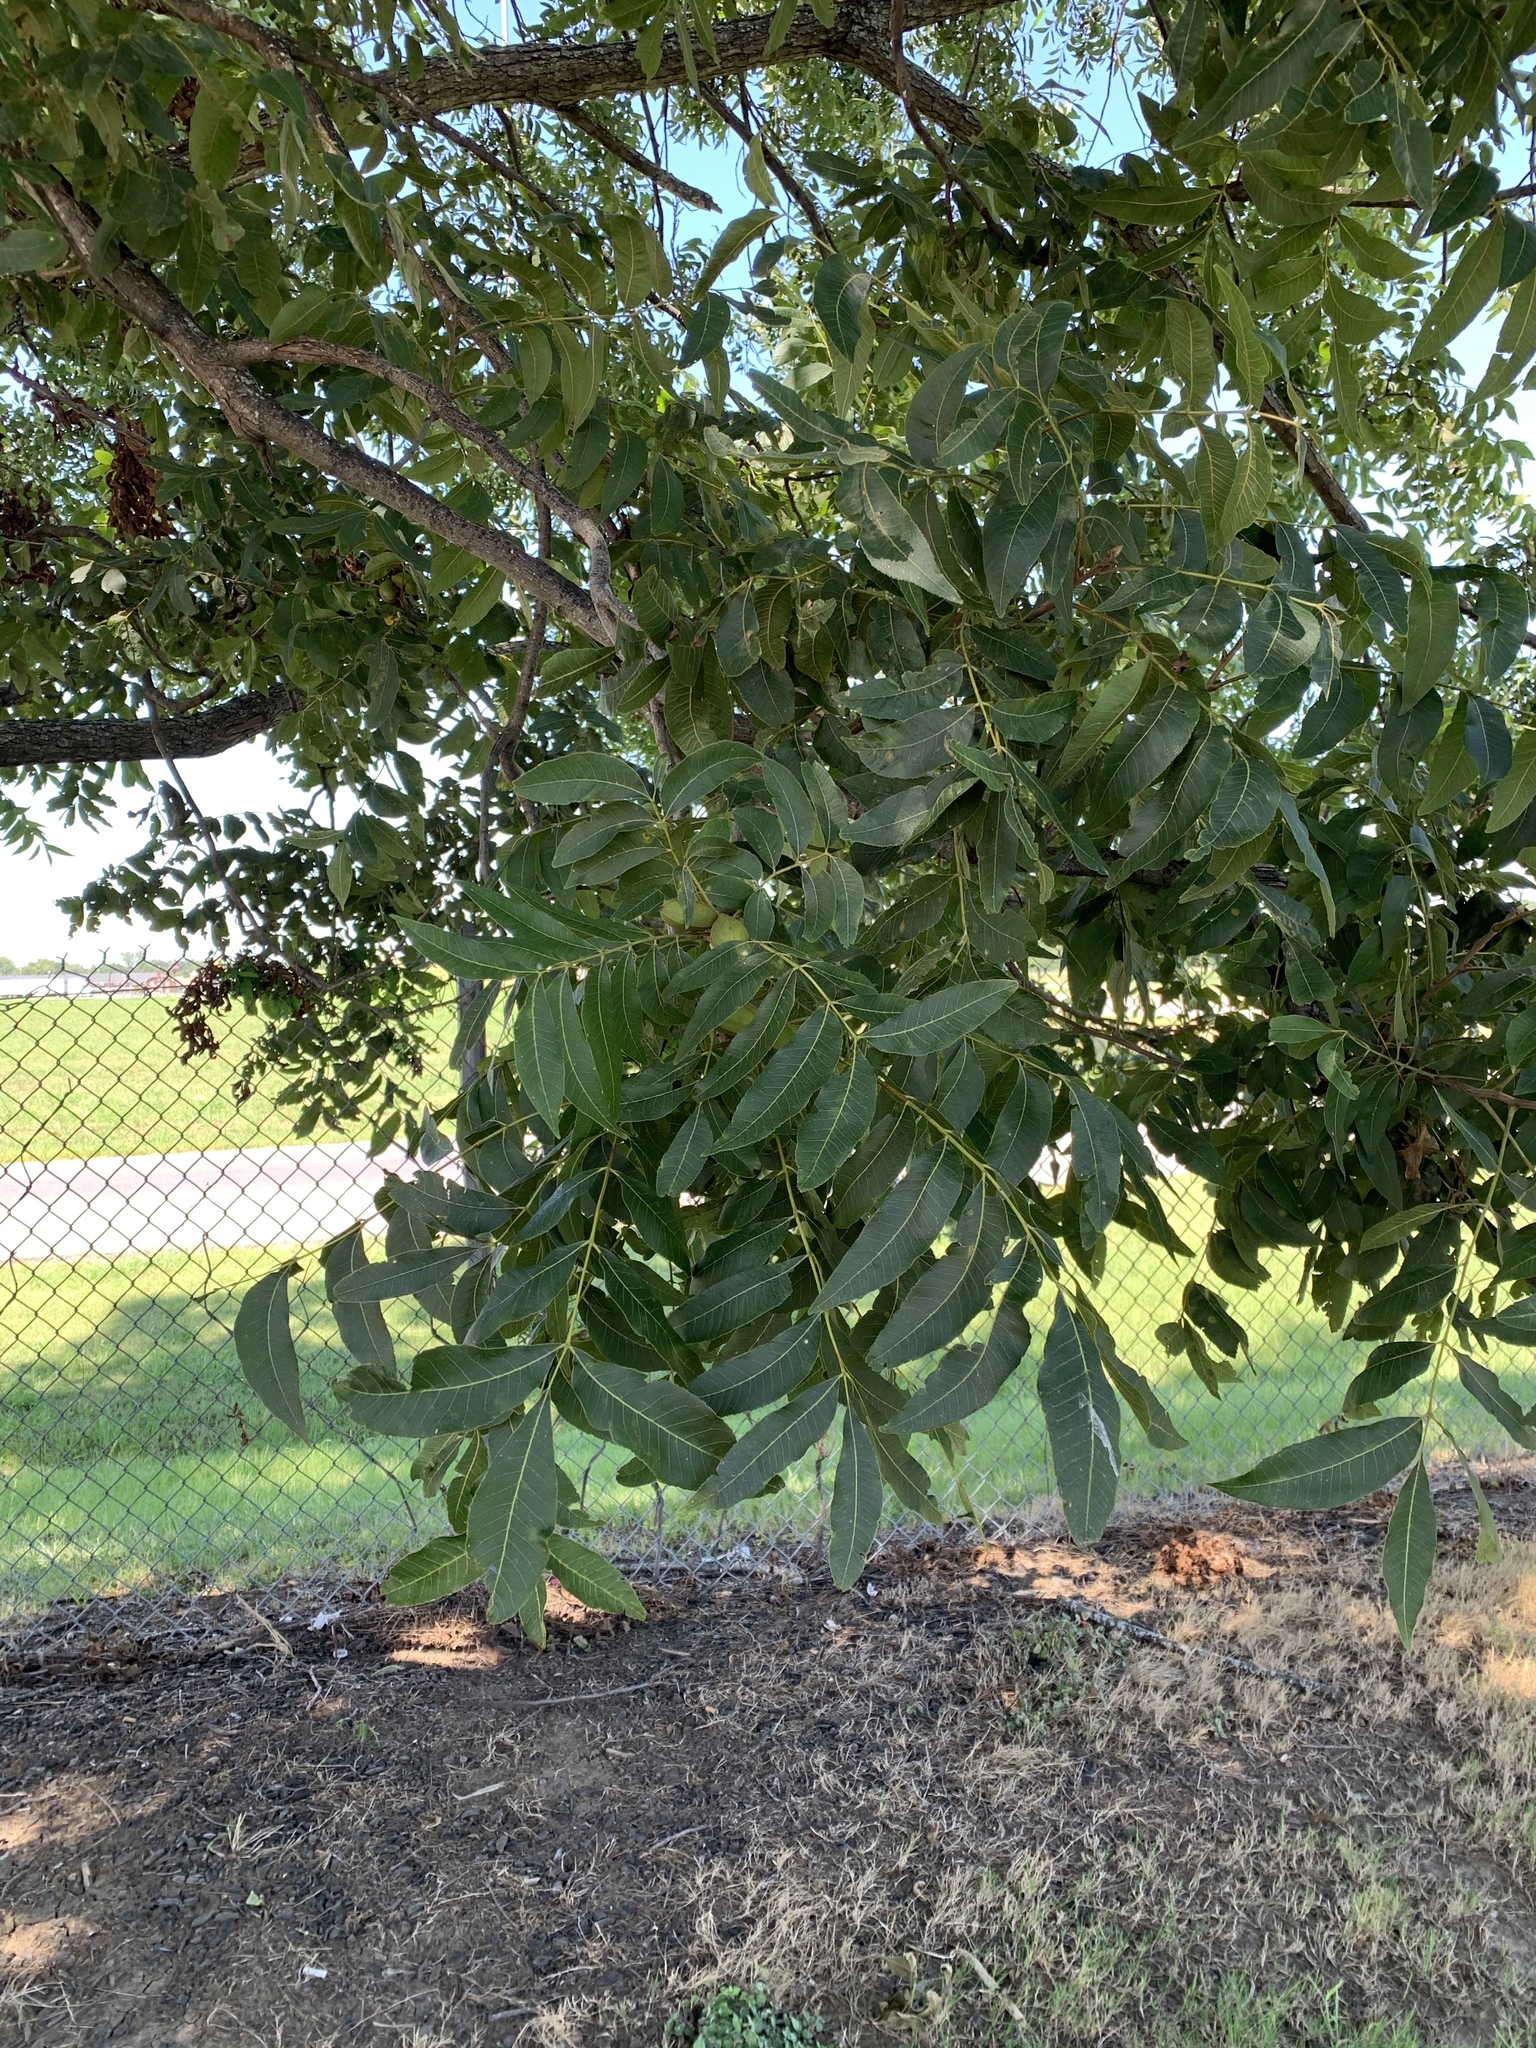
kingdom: Plantae
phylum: Tracheophyta
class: Magnoliopsida
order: Fagales
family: Juglandaceae
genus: Carya
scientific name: Carya illinoinensis
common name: Pecan
